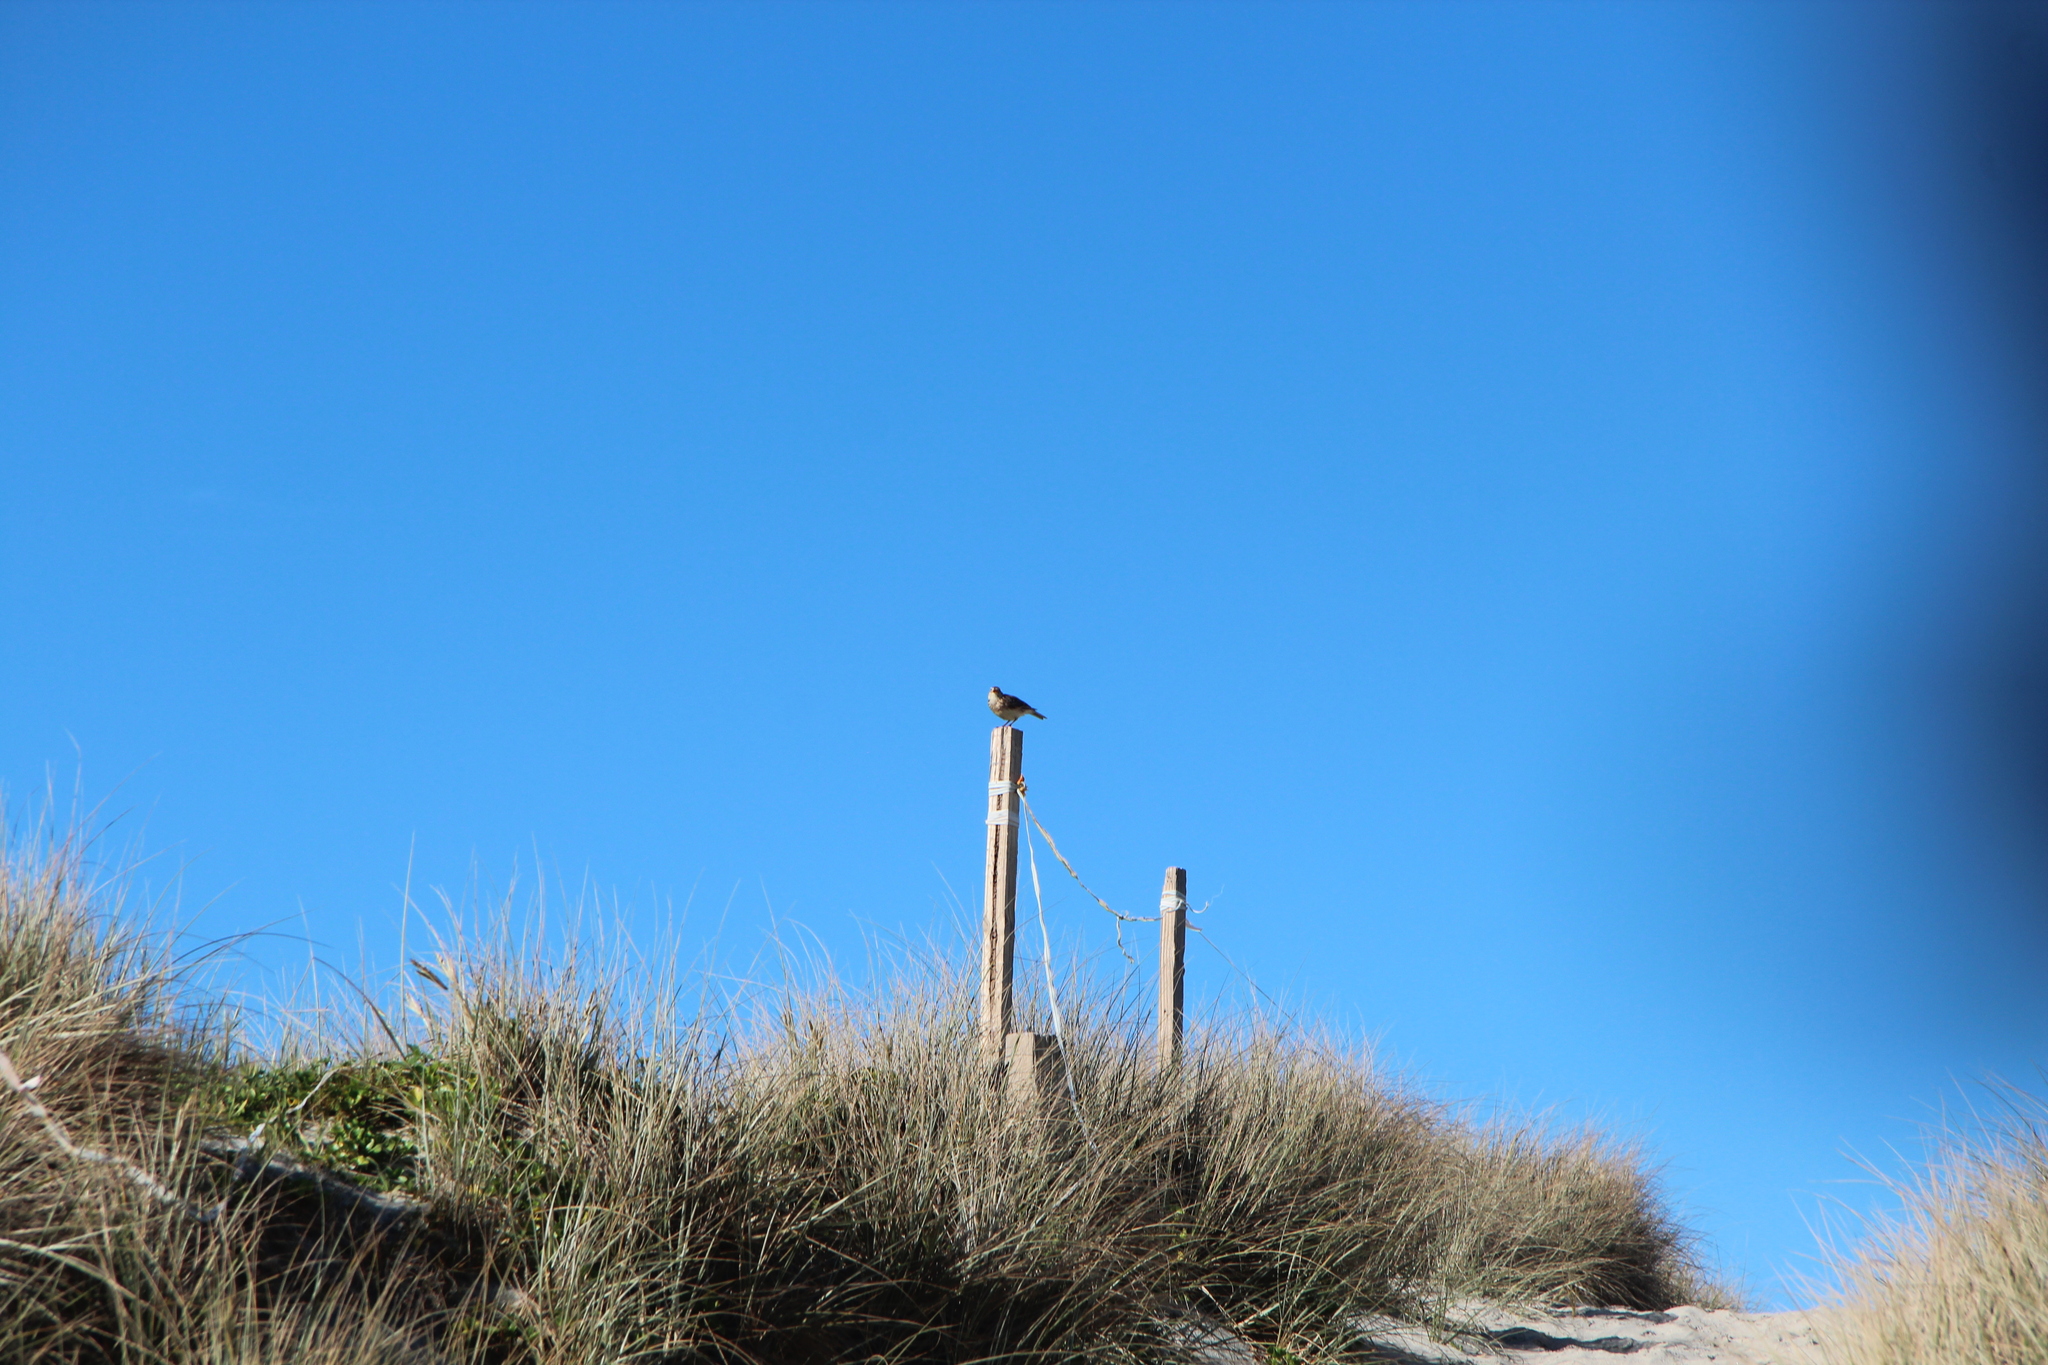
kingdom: Animalia
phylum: Chordata
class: Aves
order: Passeriformes
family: Alaudidae
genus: Alauda
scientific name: Alauda arvensis
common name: Eurasian skylark
